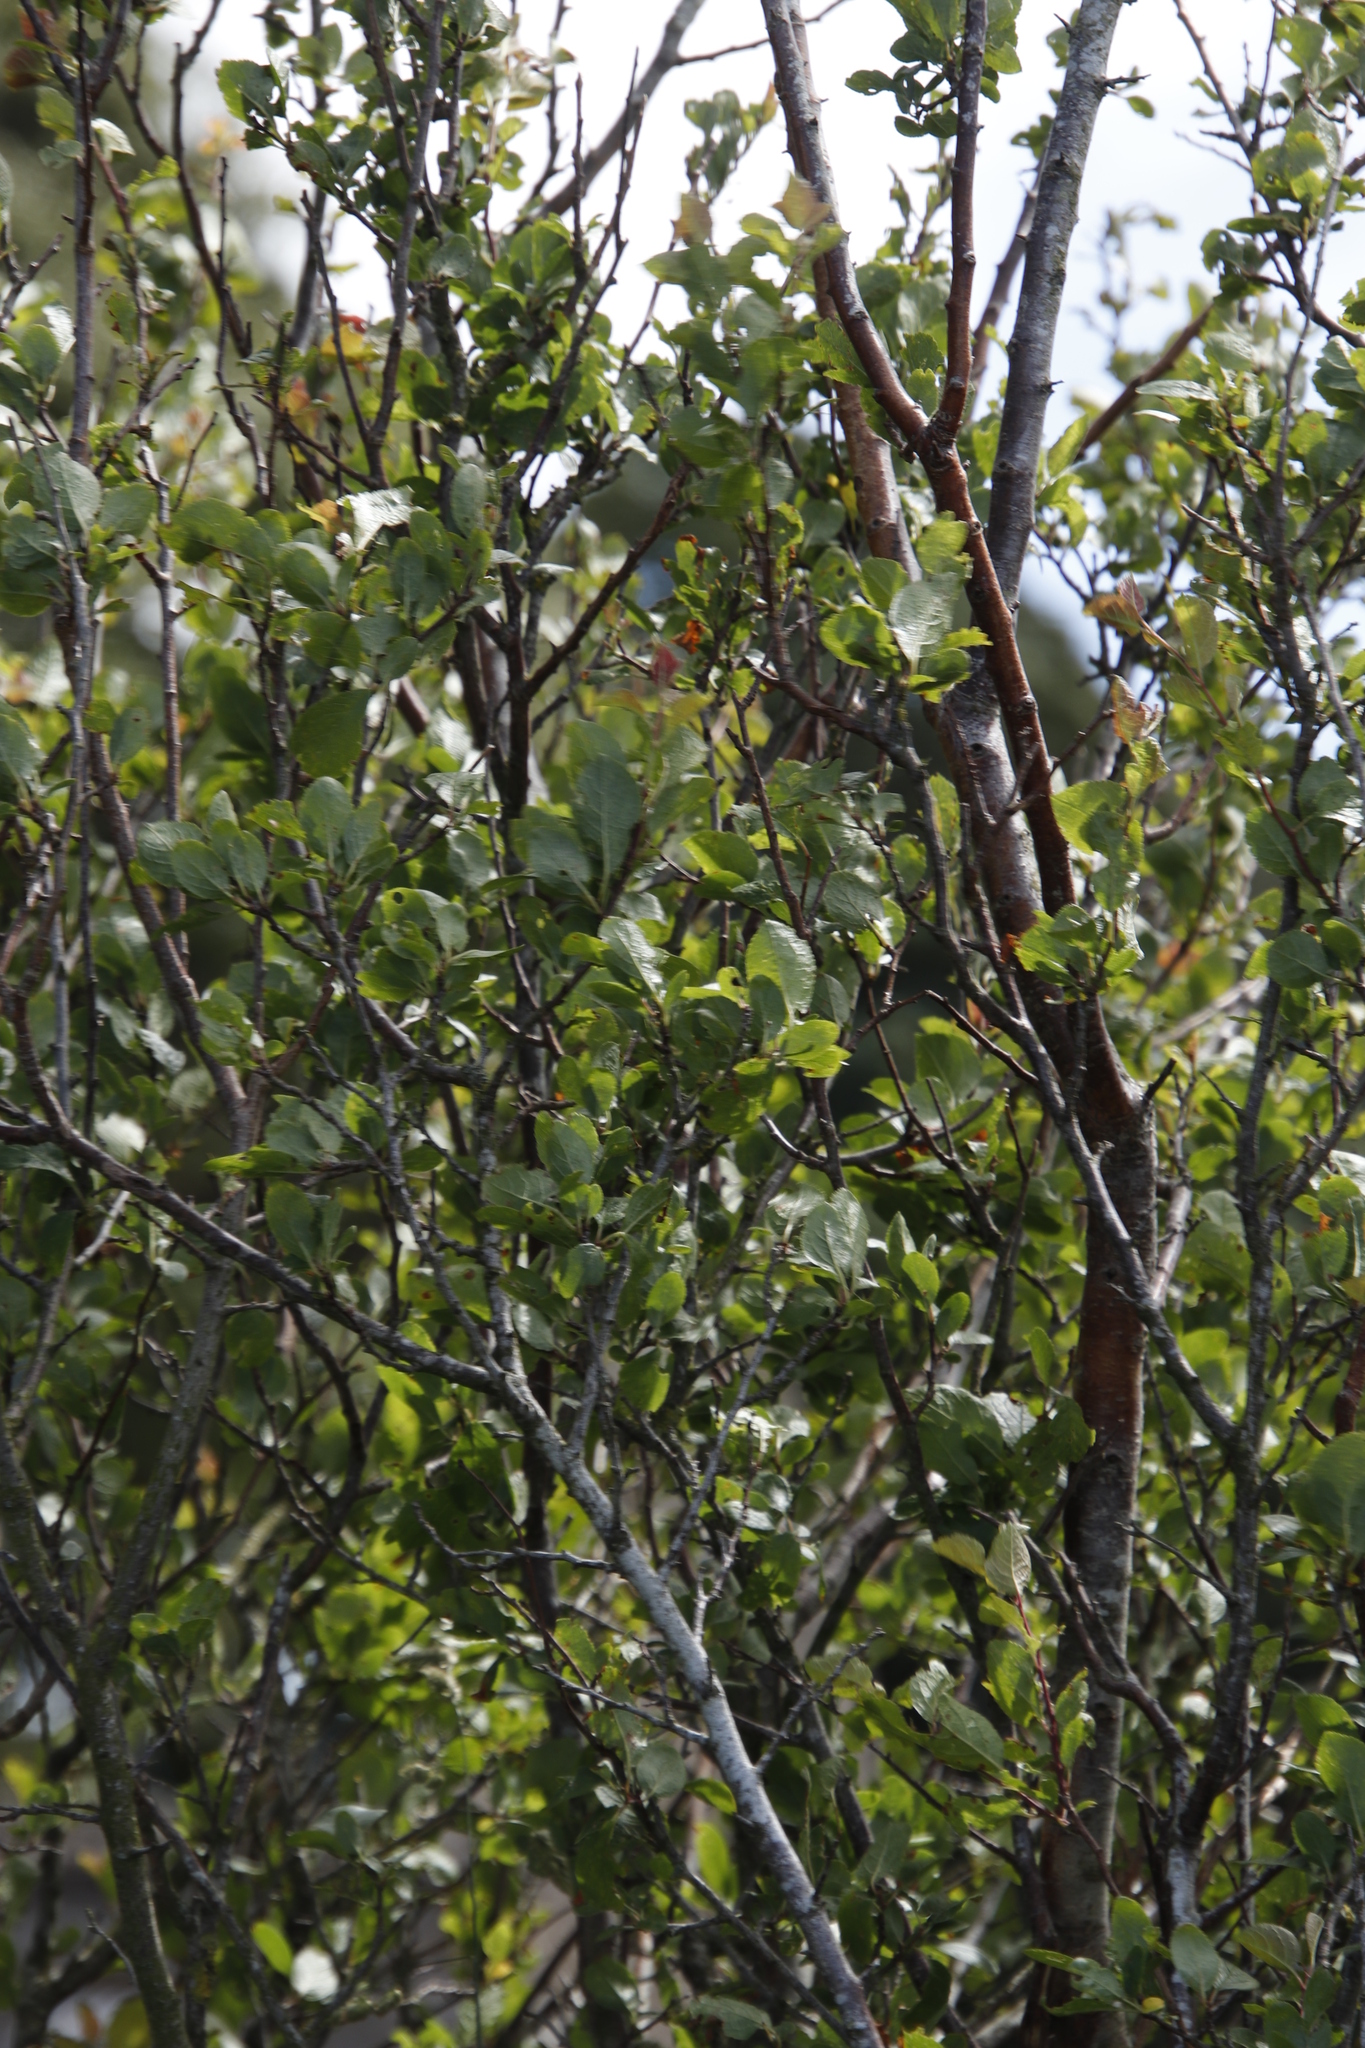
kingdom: Plantae
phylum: Tracheophyta
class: Magnoliopsida
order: Rosales
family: Rosaceae
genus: Prunus
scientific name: Prunus spinosa
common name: Blackthorn
